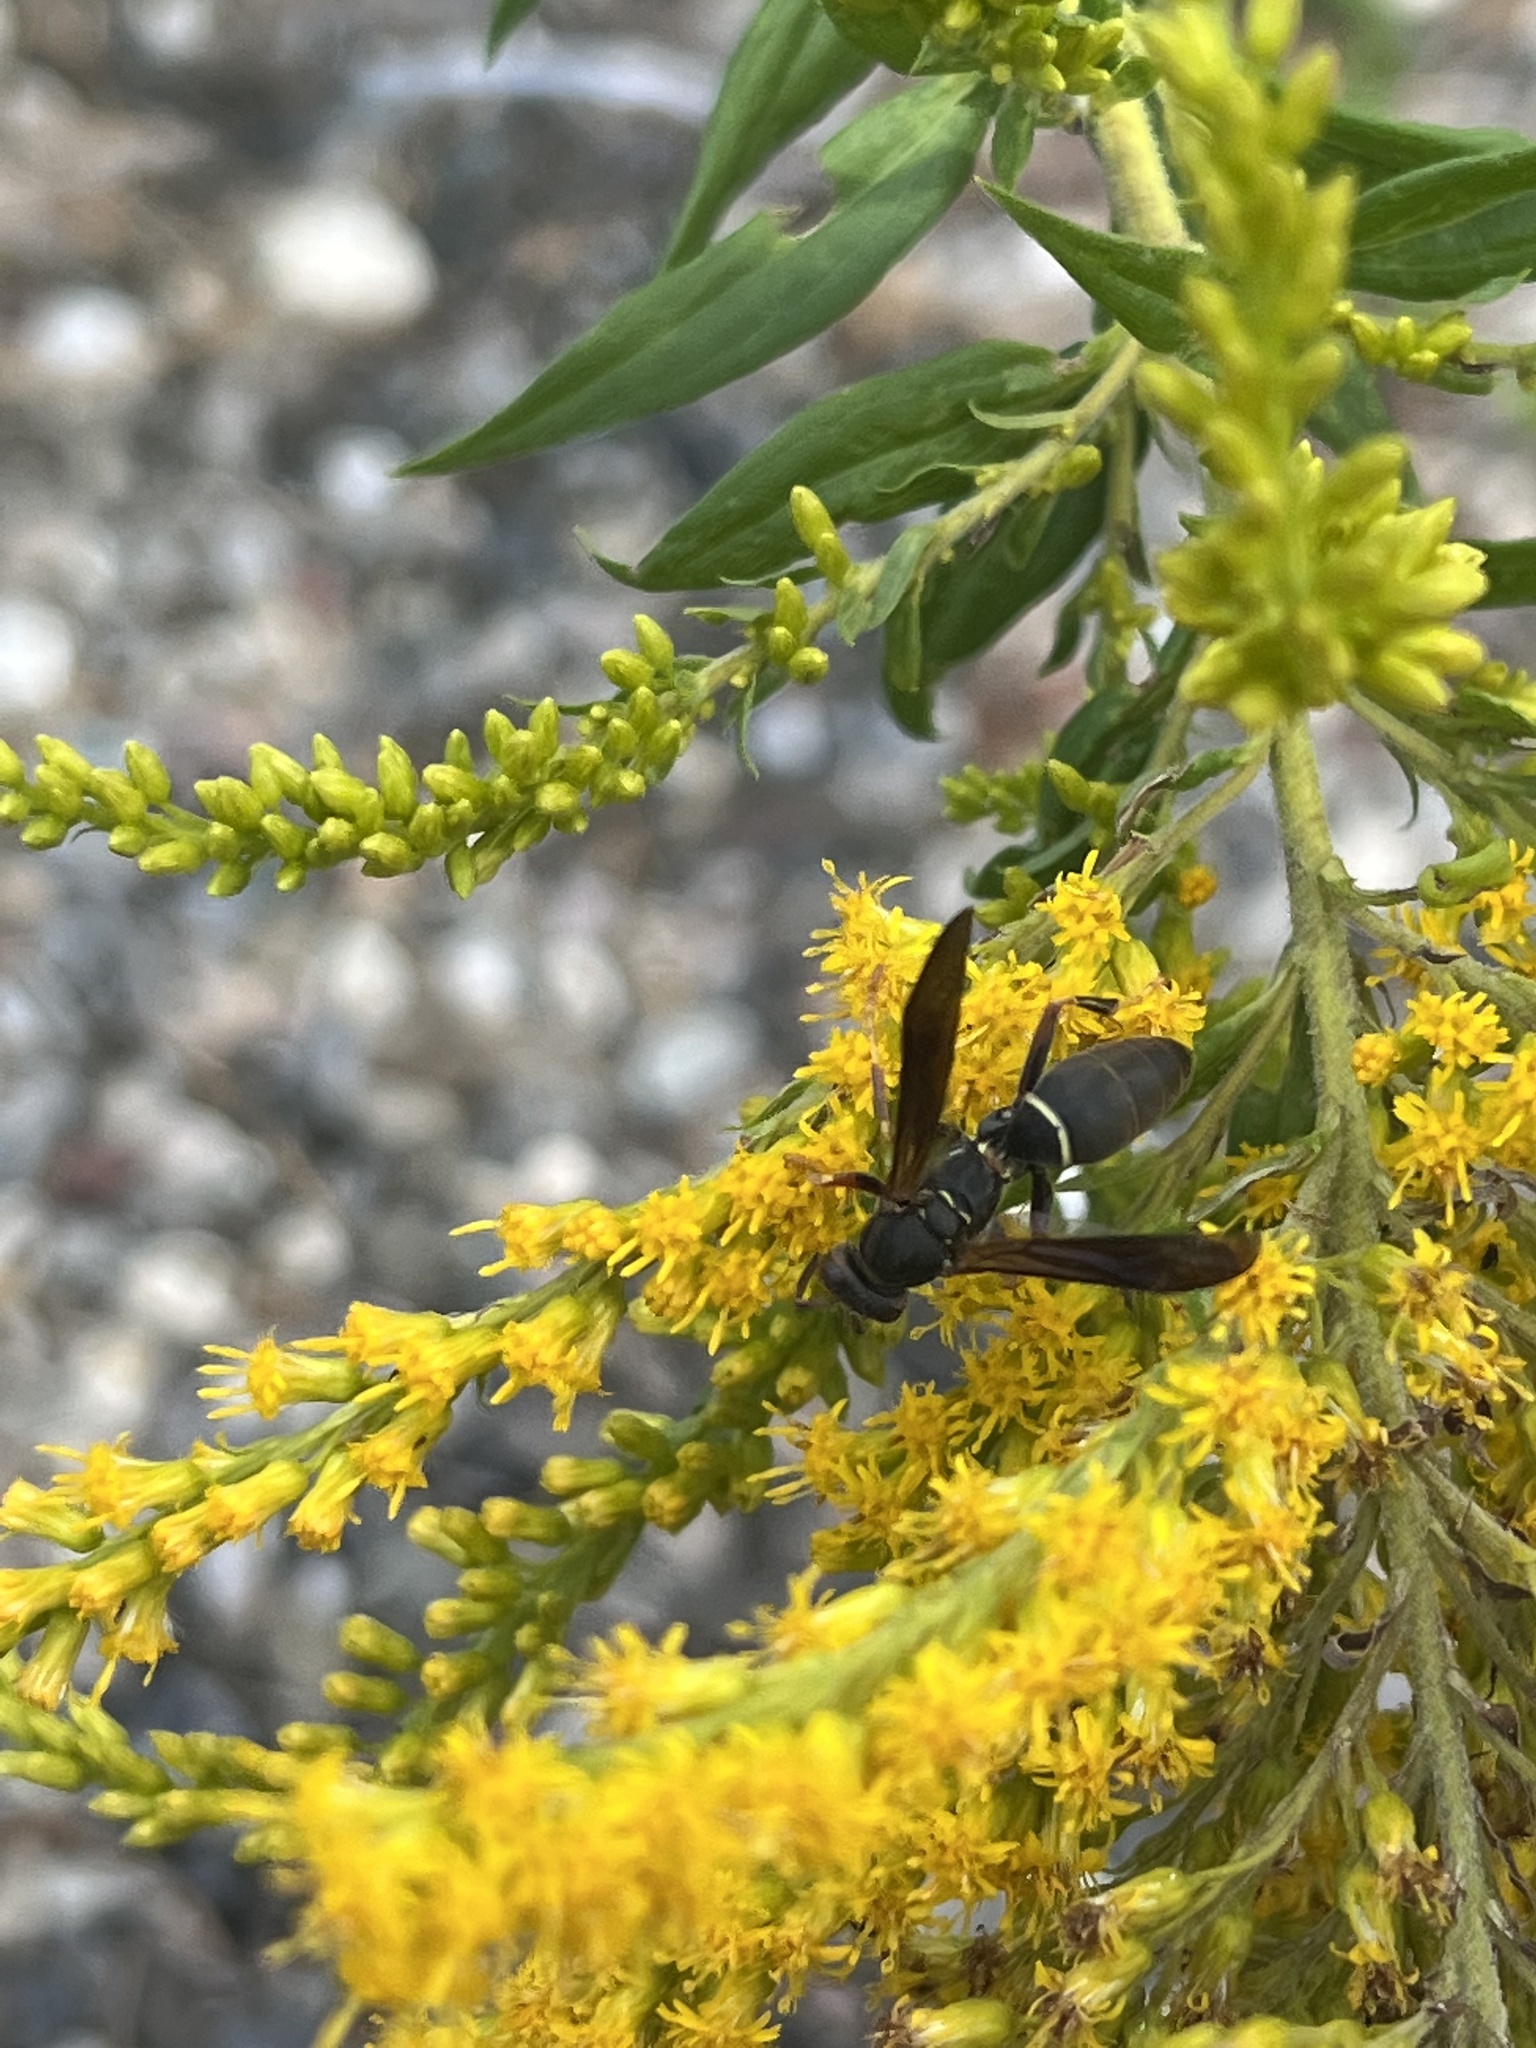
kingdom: Animalia
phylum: Arthropoda
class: Insecta
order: Hymenoptera
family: Eumenidae
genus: Polistes
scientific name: Polistes fuscatus
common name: Dark paper wasp
